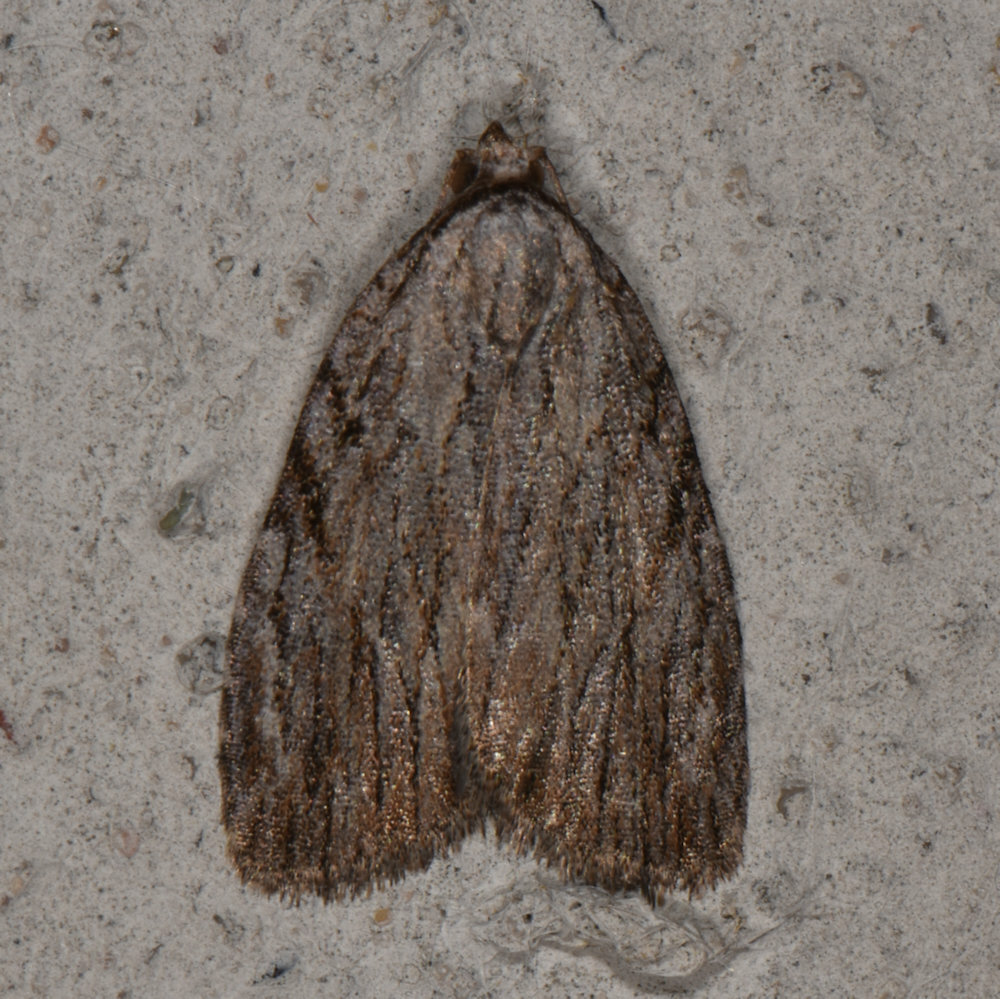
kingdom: Animalia
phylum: Arthropoda
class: Insecta
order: Lepidoptera
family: Noctuidae
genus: Balsa
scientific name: Balsa tristrigella
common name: Three-lined balsa moth
